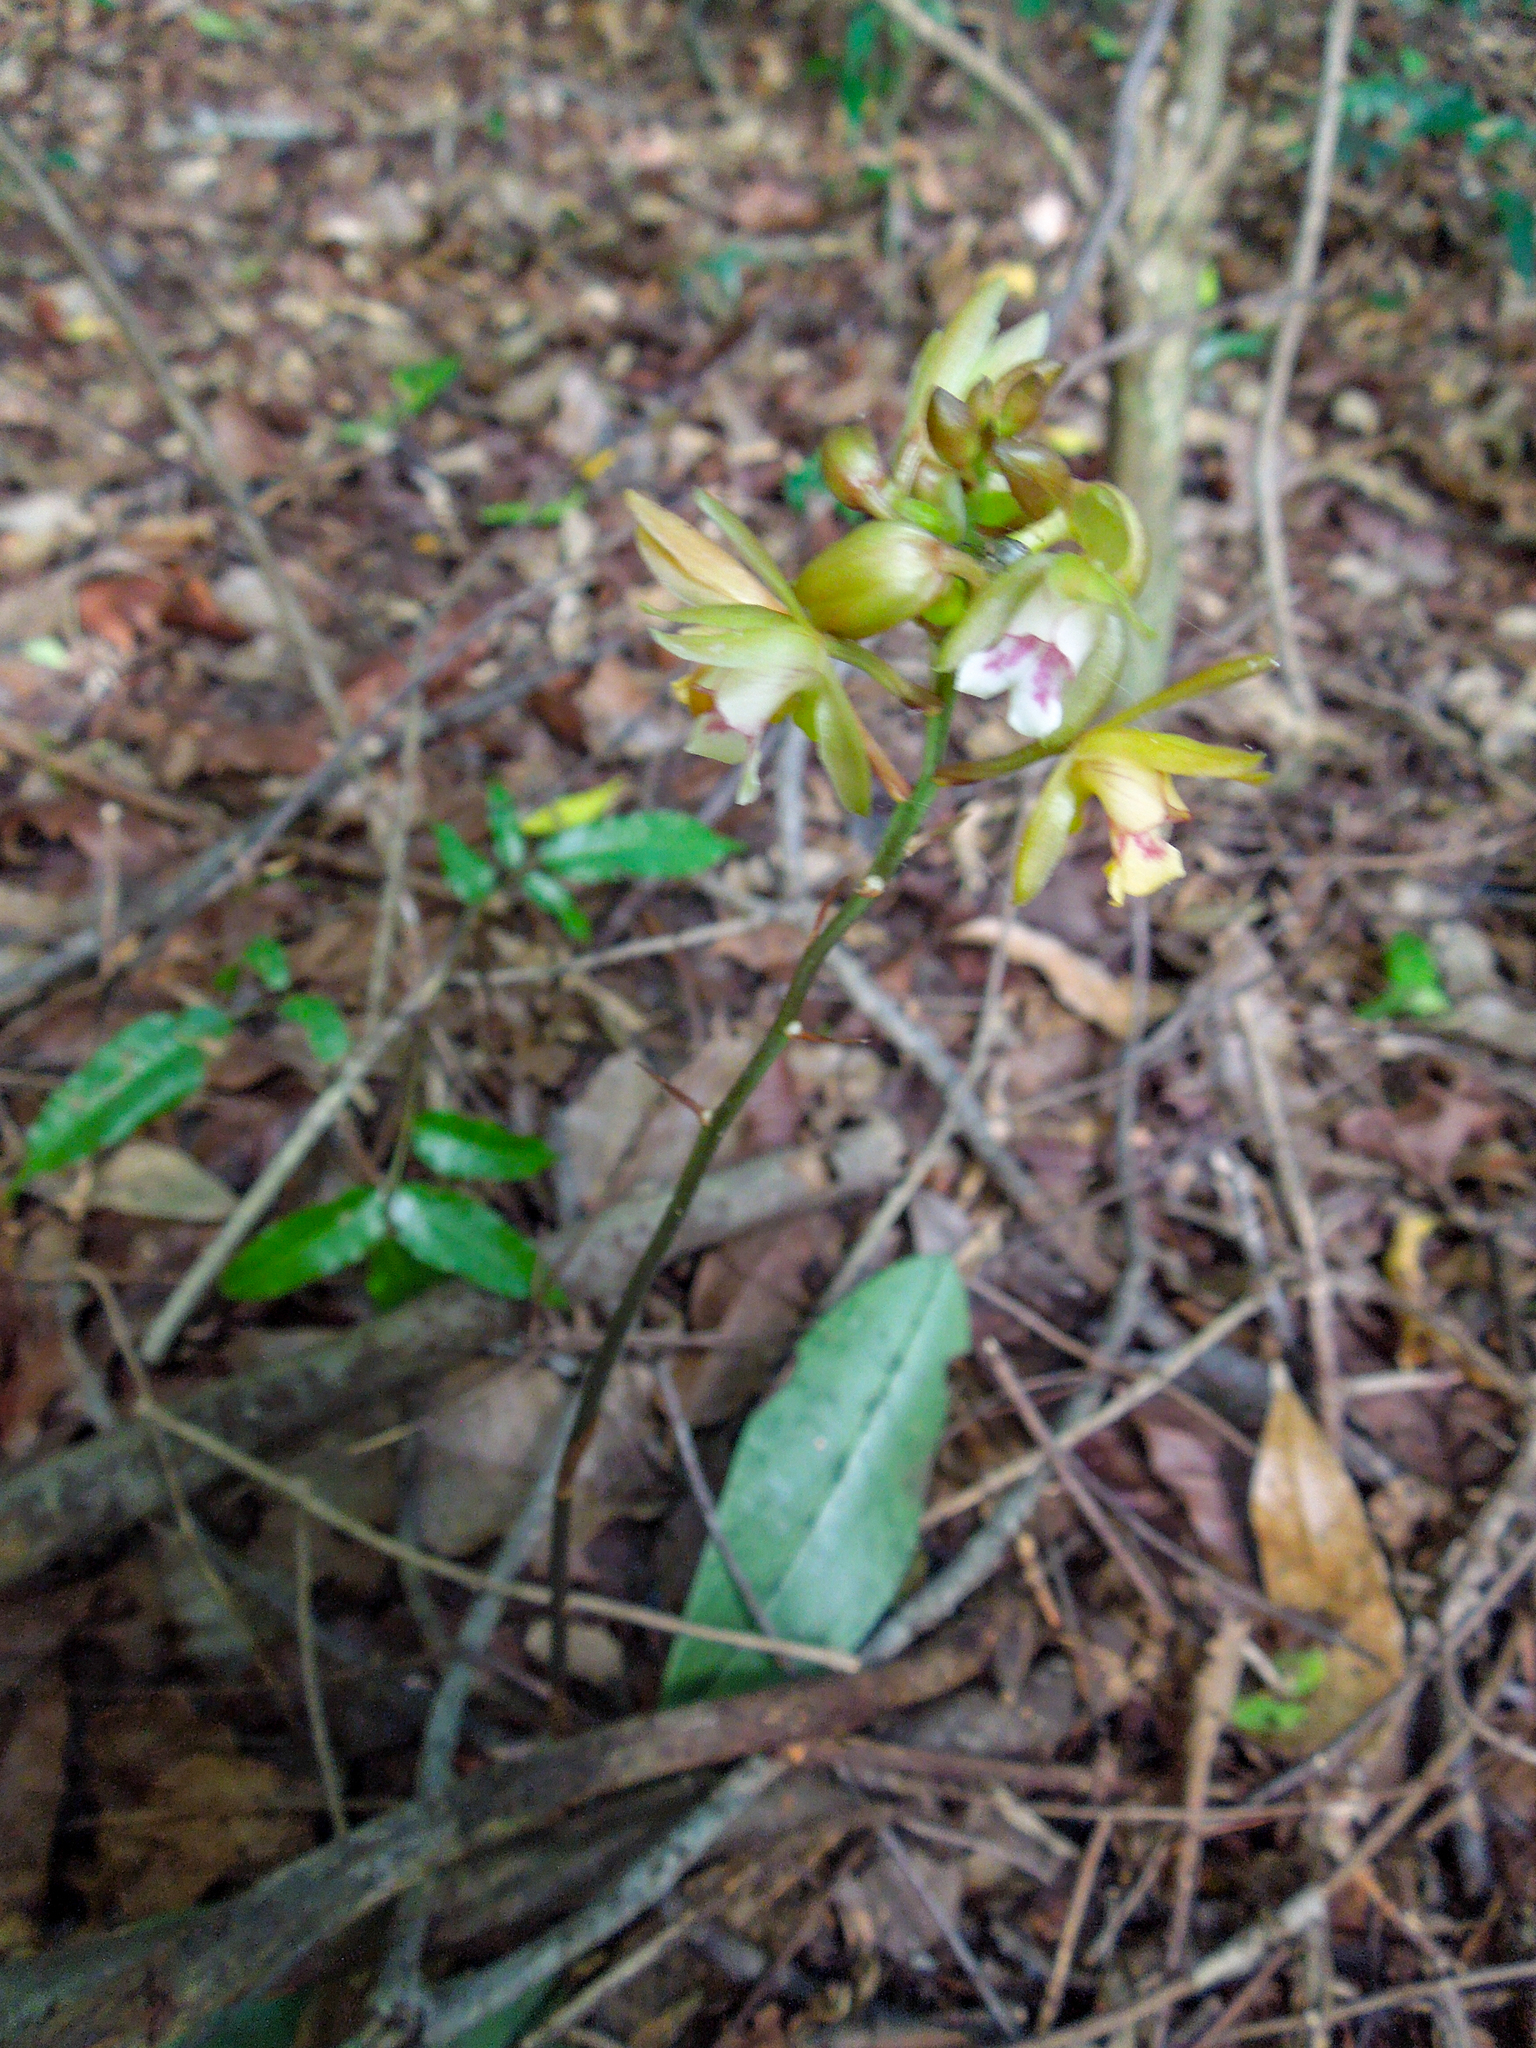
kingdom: Plantae
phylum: Tracheophyta
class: Liliopsida
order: Asparagales
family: Orchidaceae
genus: Eulophia
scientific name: Eulophia maculata
